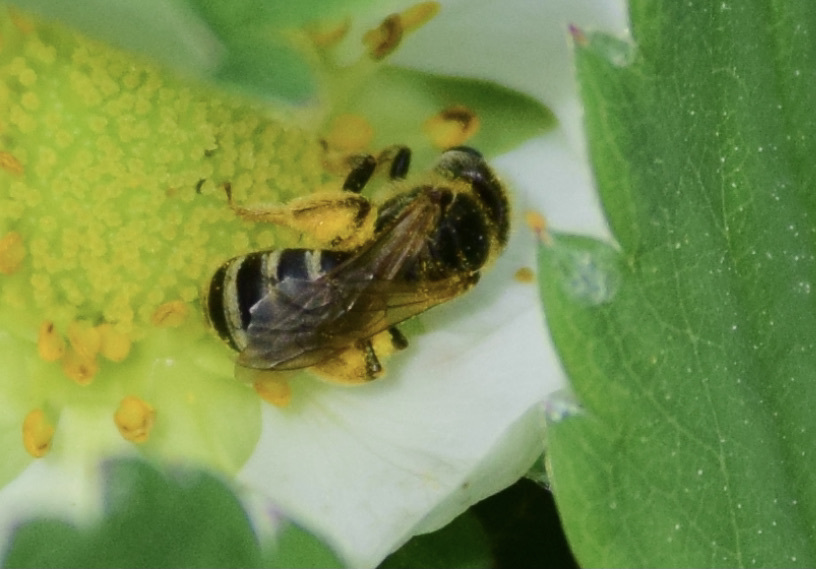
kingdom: Animalia
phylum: Arthropoda
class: Insecta
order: Hymenoptera
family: Halictidae
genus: Halictus
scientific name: Halictus ligatus
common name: Ligated furrow bee
